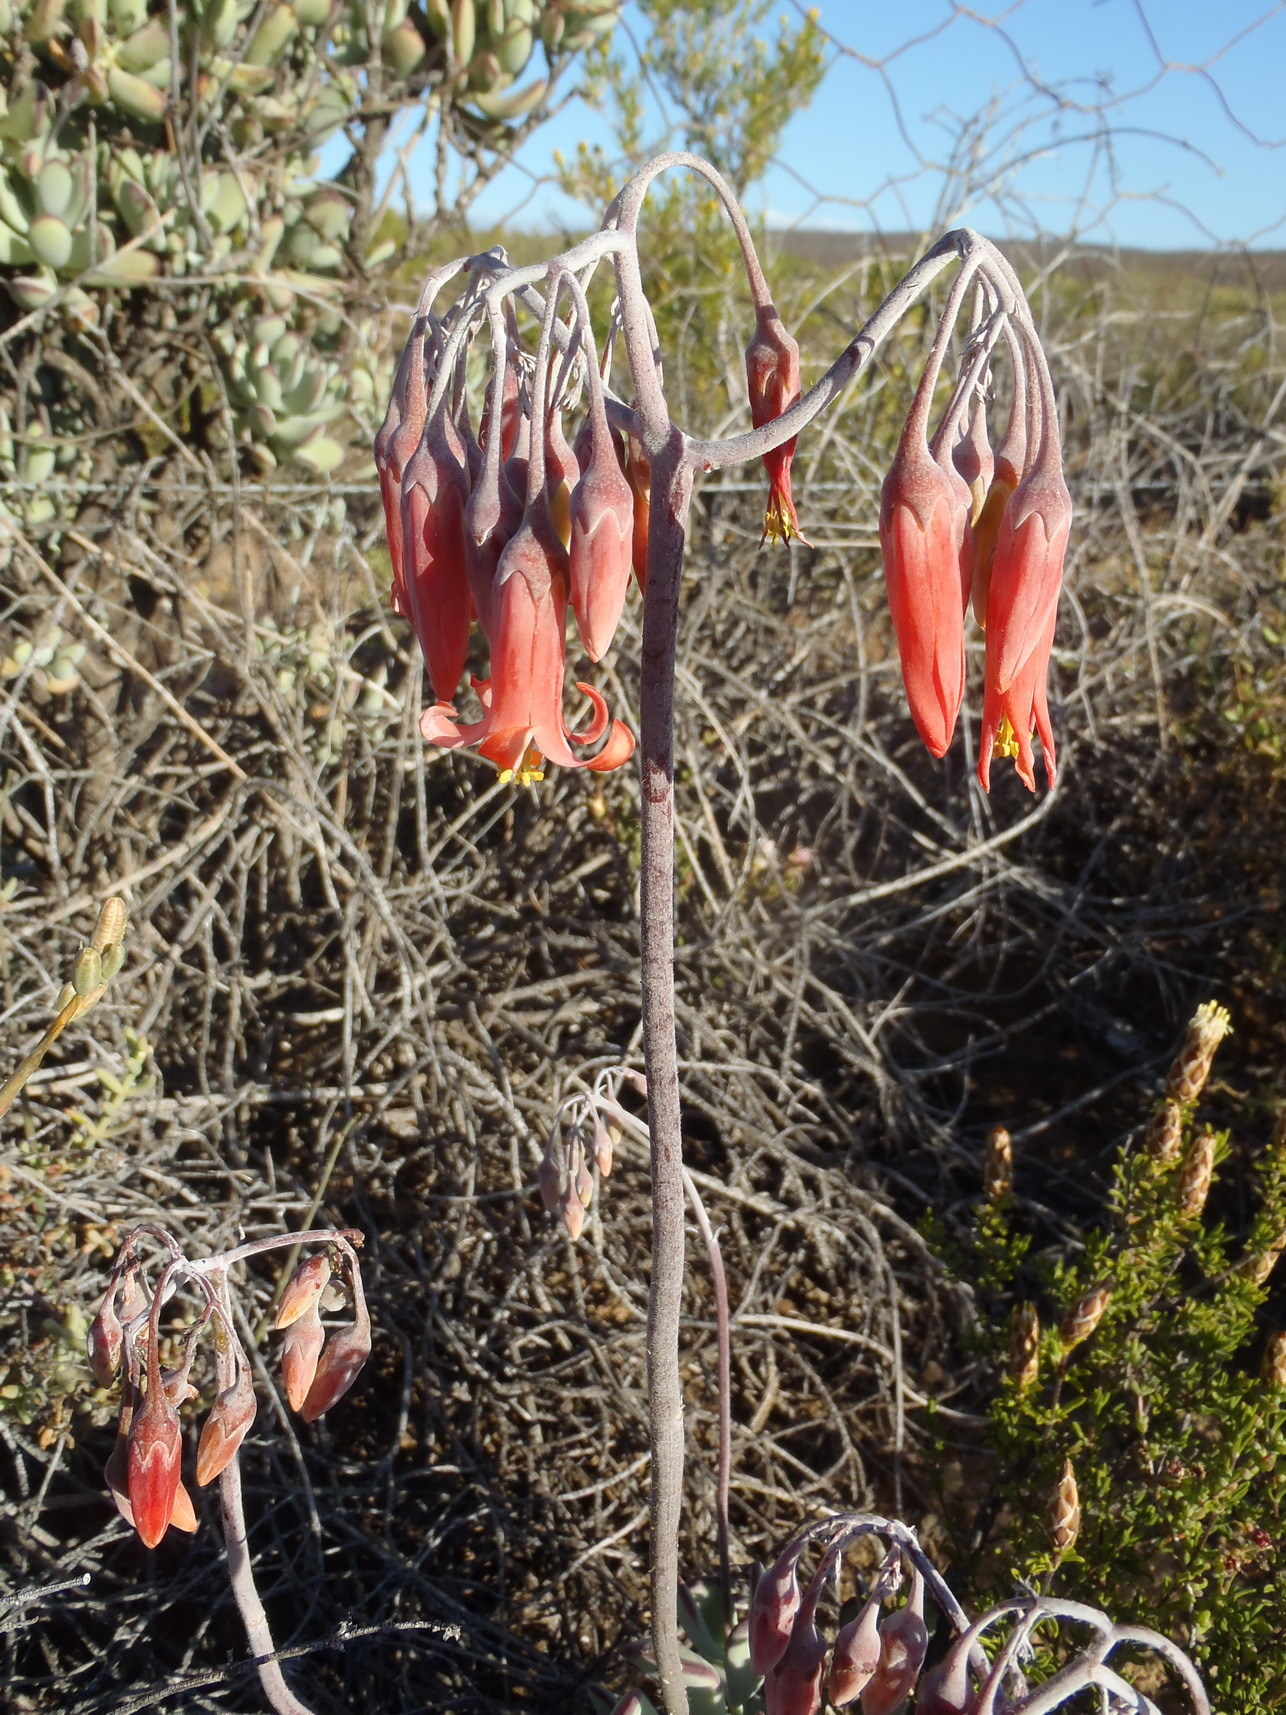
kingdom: Plantae
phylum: Tracheophyta
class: Magnoliopsida
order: Saxifragales
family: Crassulaceae
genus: Cotyledon
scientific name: Cotyledon orbiculata
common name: Pig's ear
